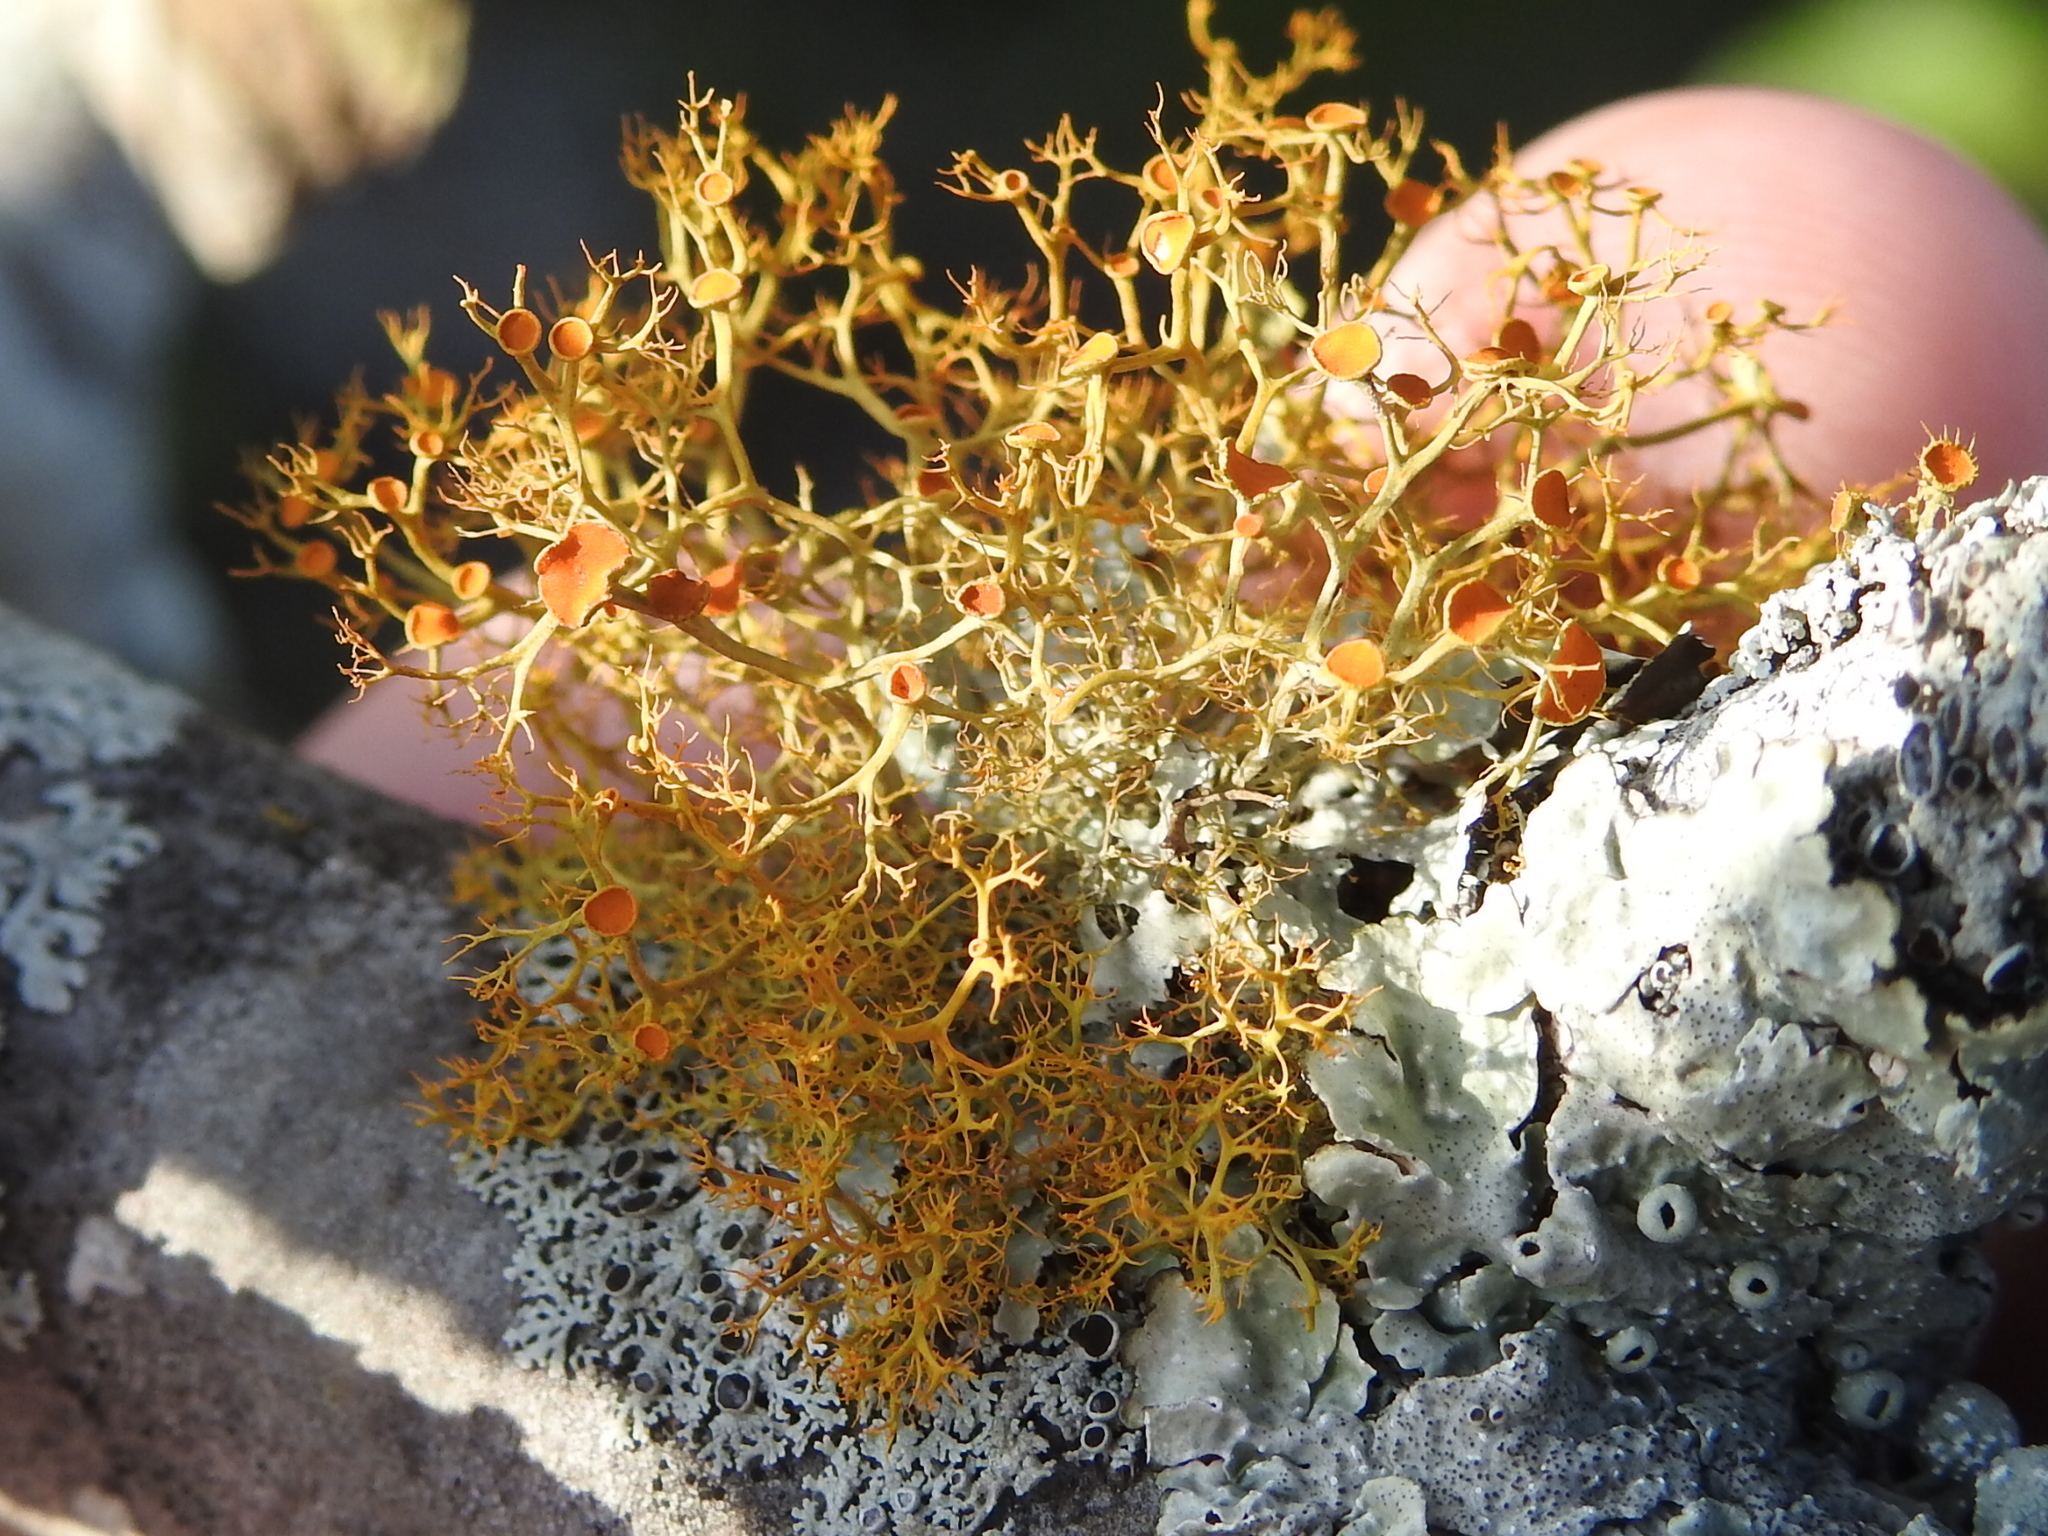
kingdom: Fungi
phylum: Ascomycota
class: Lecanoromycetes
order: Teloschistales
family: Teloschistaceae
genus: Teloschistes
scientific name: Teloschistes exilis
